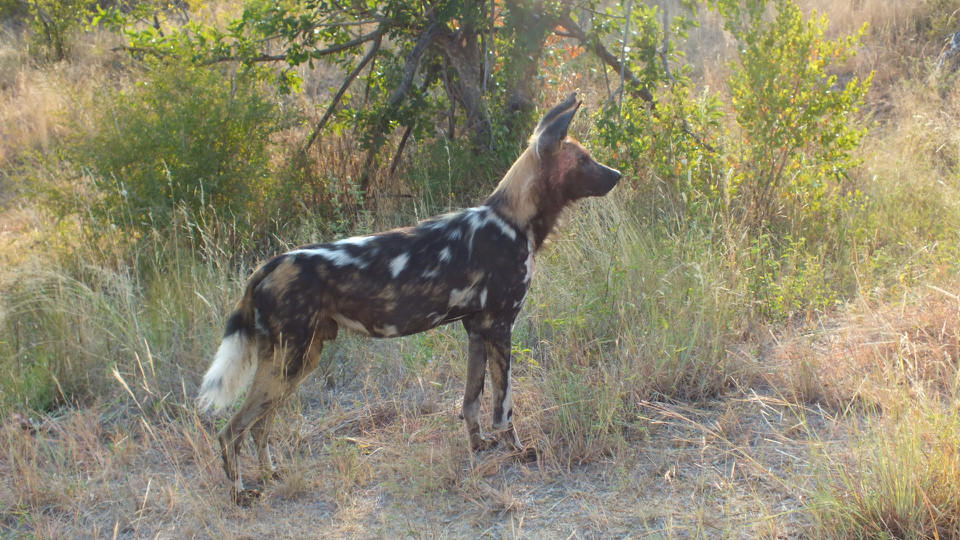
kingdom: Animalia
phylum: Chordata
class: Mammalia
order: Carnivora
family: Canidae
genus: Lycaon
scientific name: Lycaon pictus
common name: African wild dog
